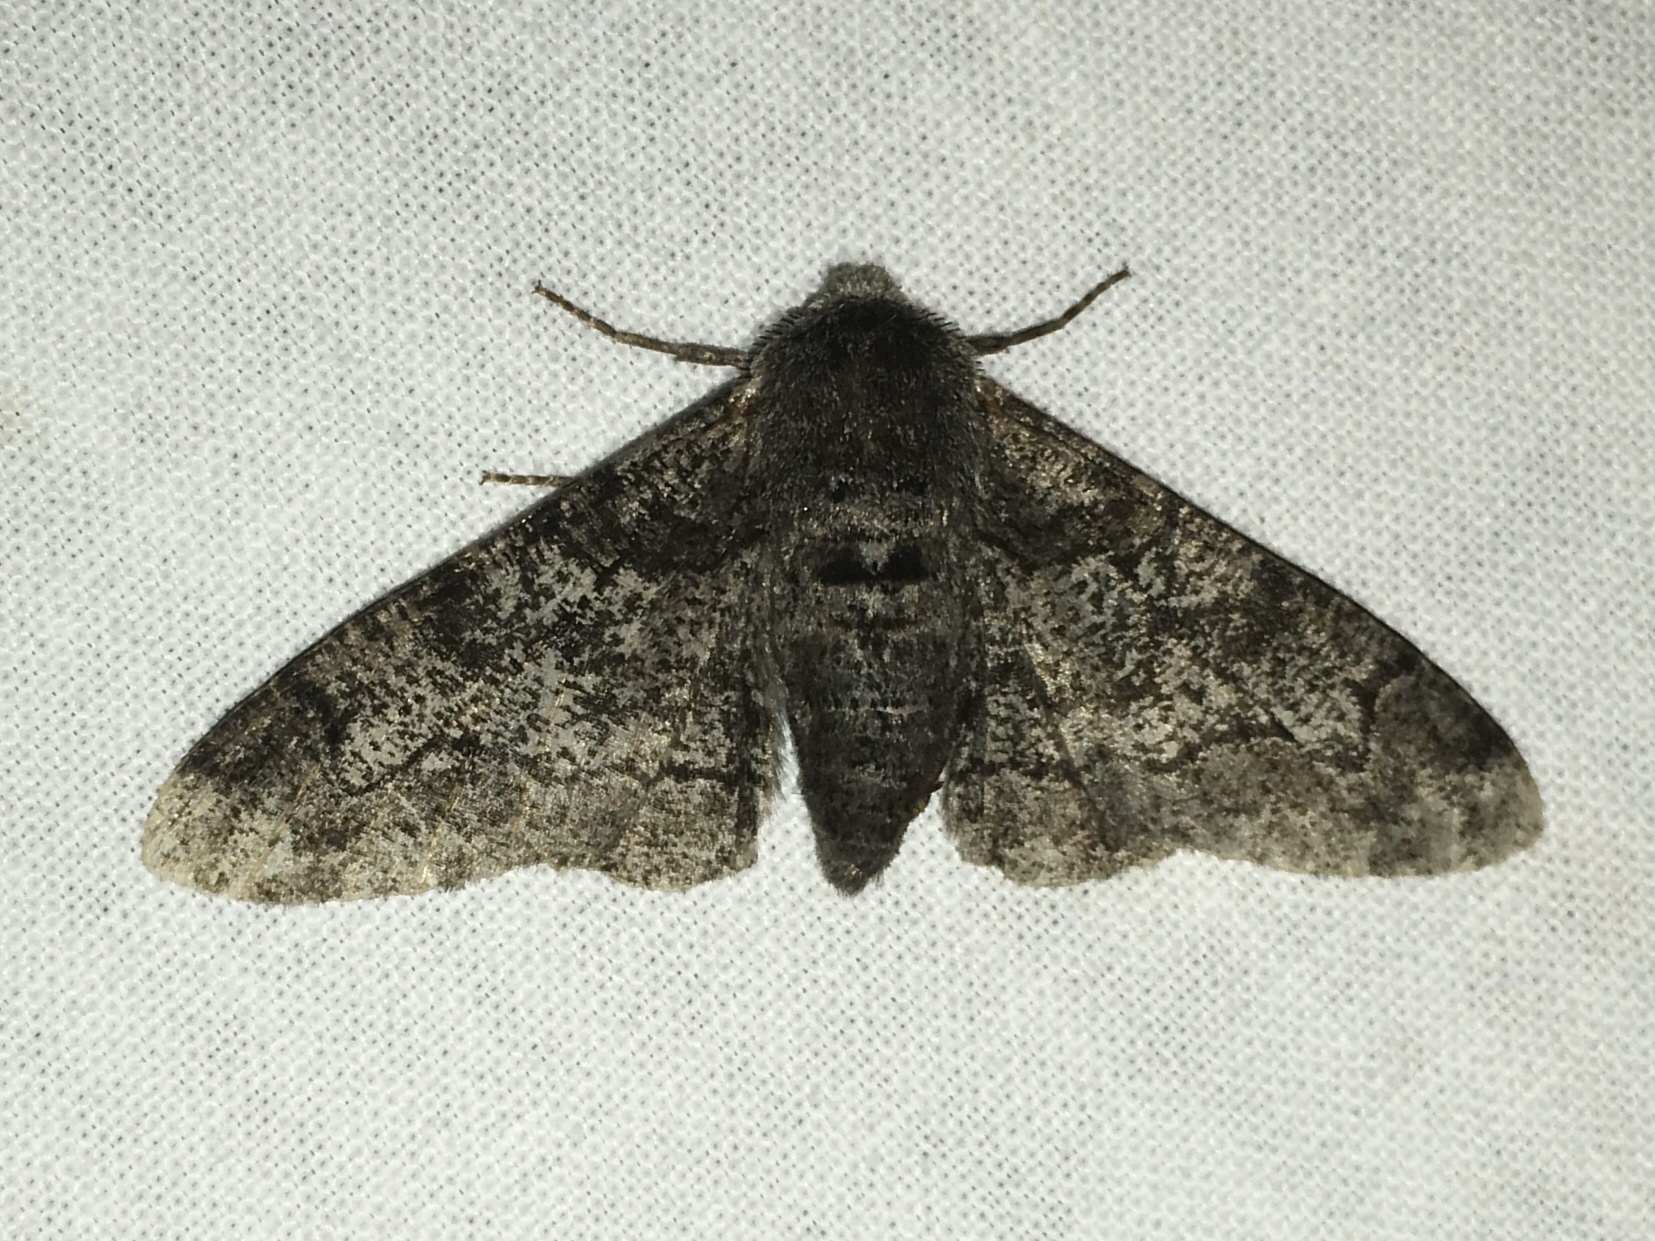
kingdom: Animalia
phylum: Arthropoda
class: Insecta
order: Lepidoptera
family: Geometridae
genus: Biston
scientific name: Biston betularia
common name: Peppered moth
